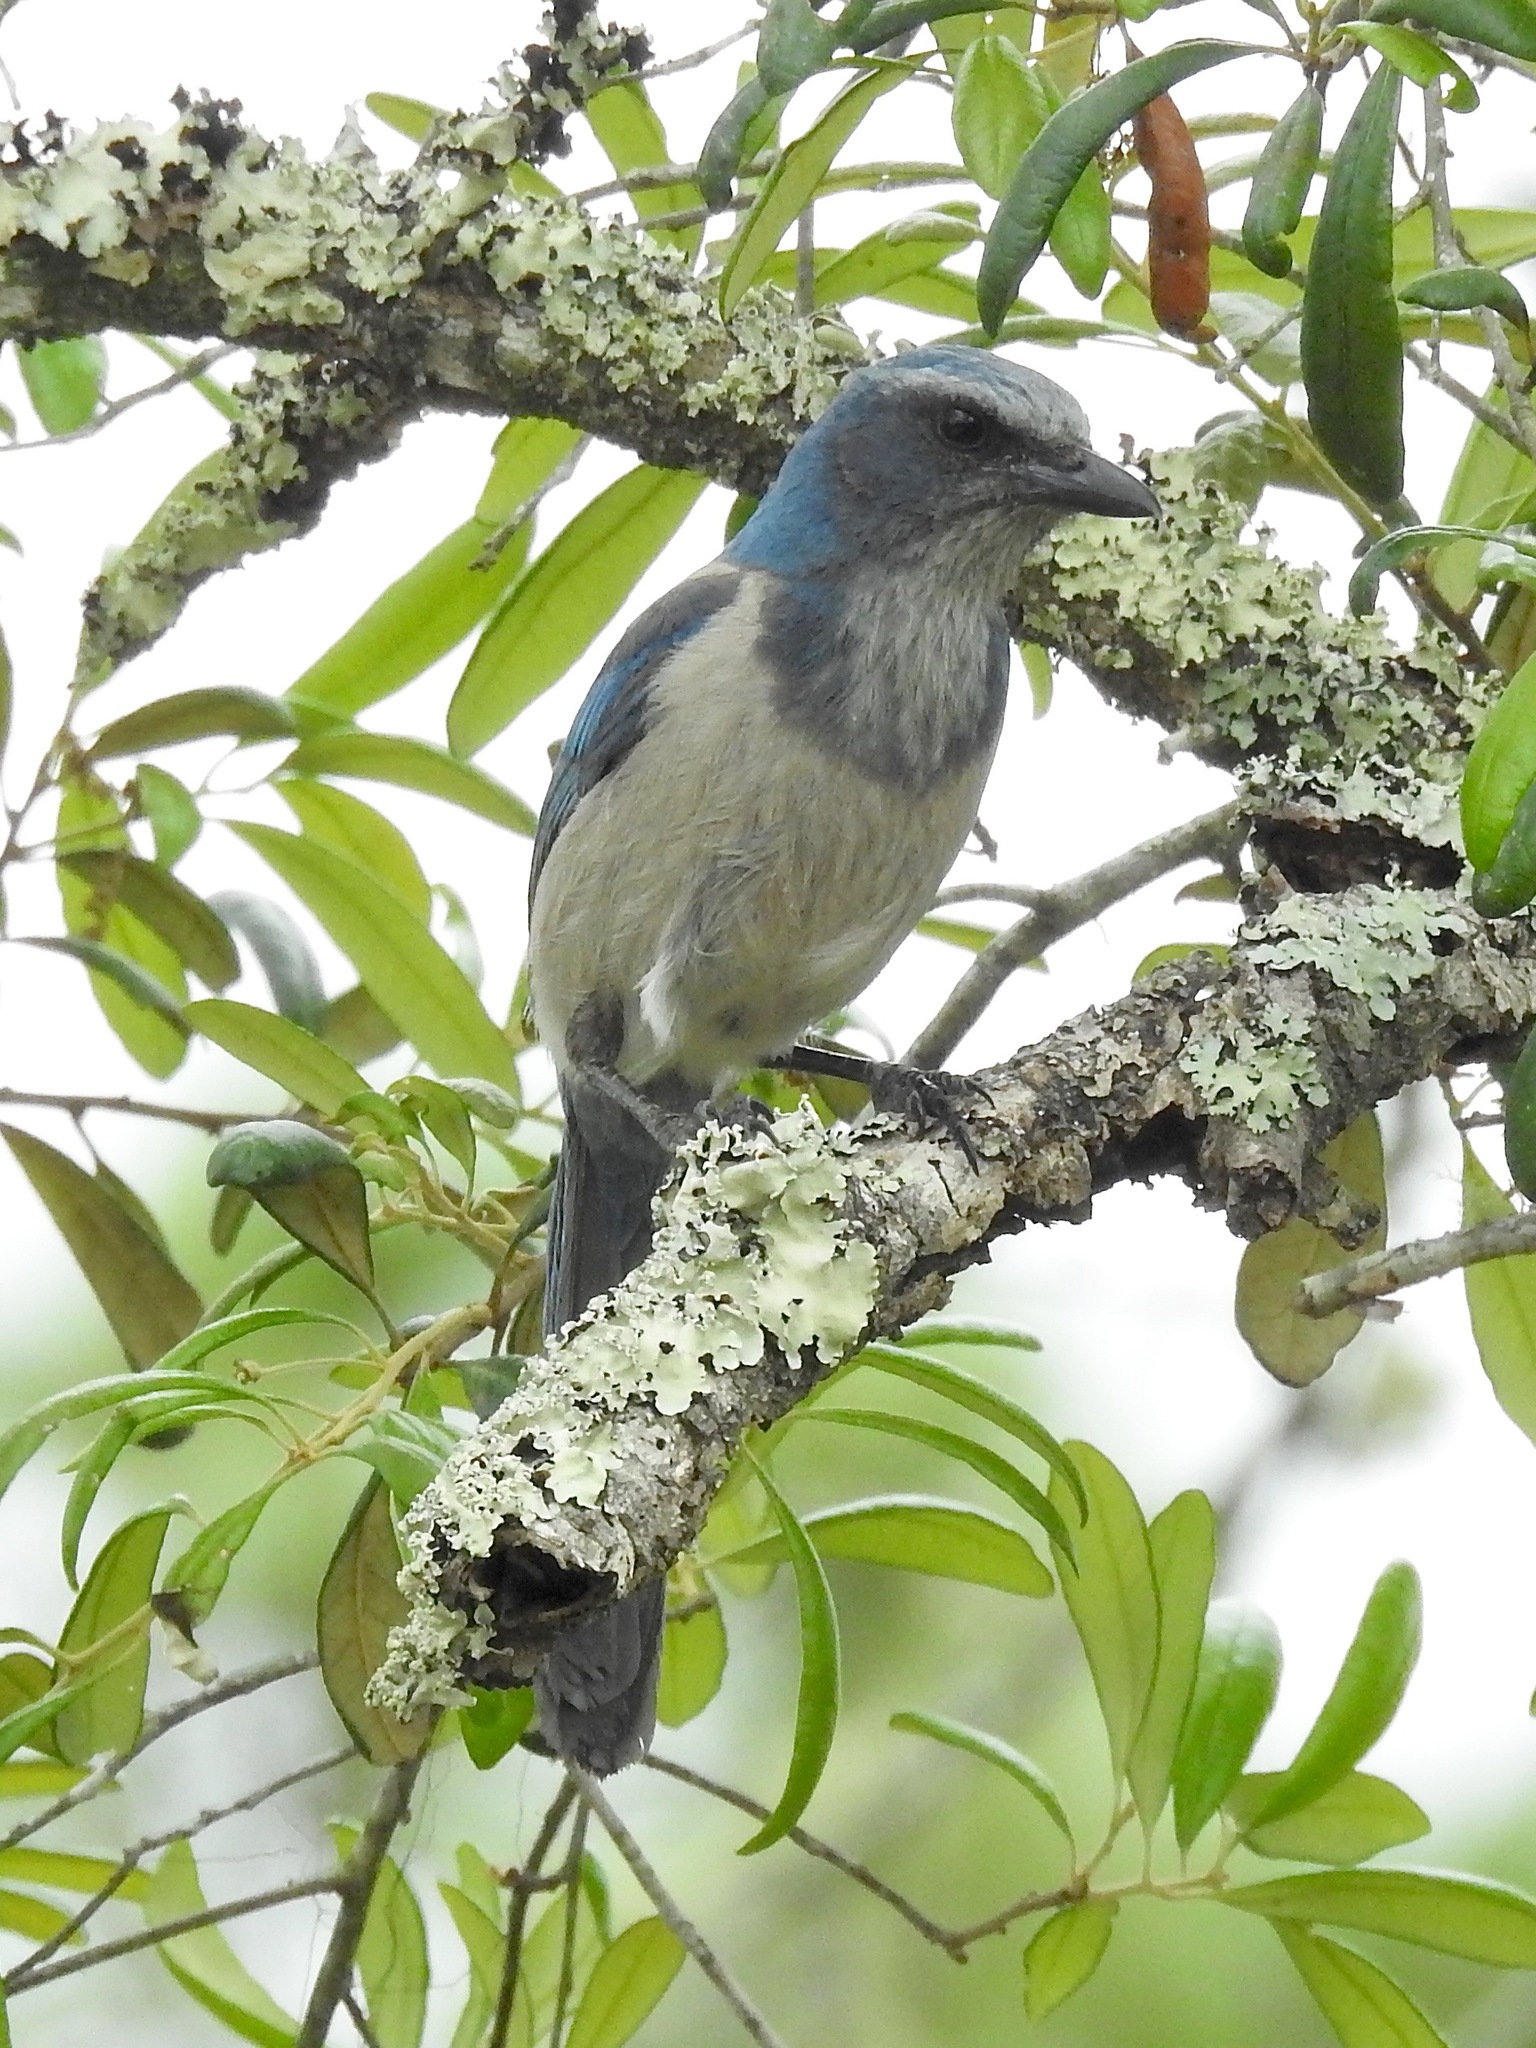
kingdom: Animalia
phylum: Chordata
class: Aves
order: Passeriformes
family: Corvidae
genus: Aphelocoma
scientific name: Aphelocoma coerulescens
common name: Florida scrub jay
